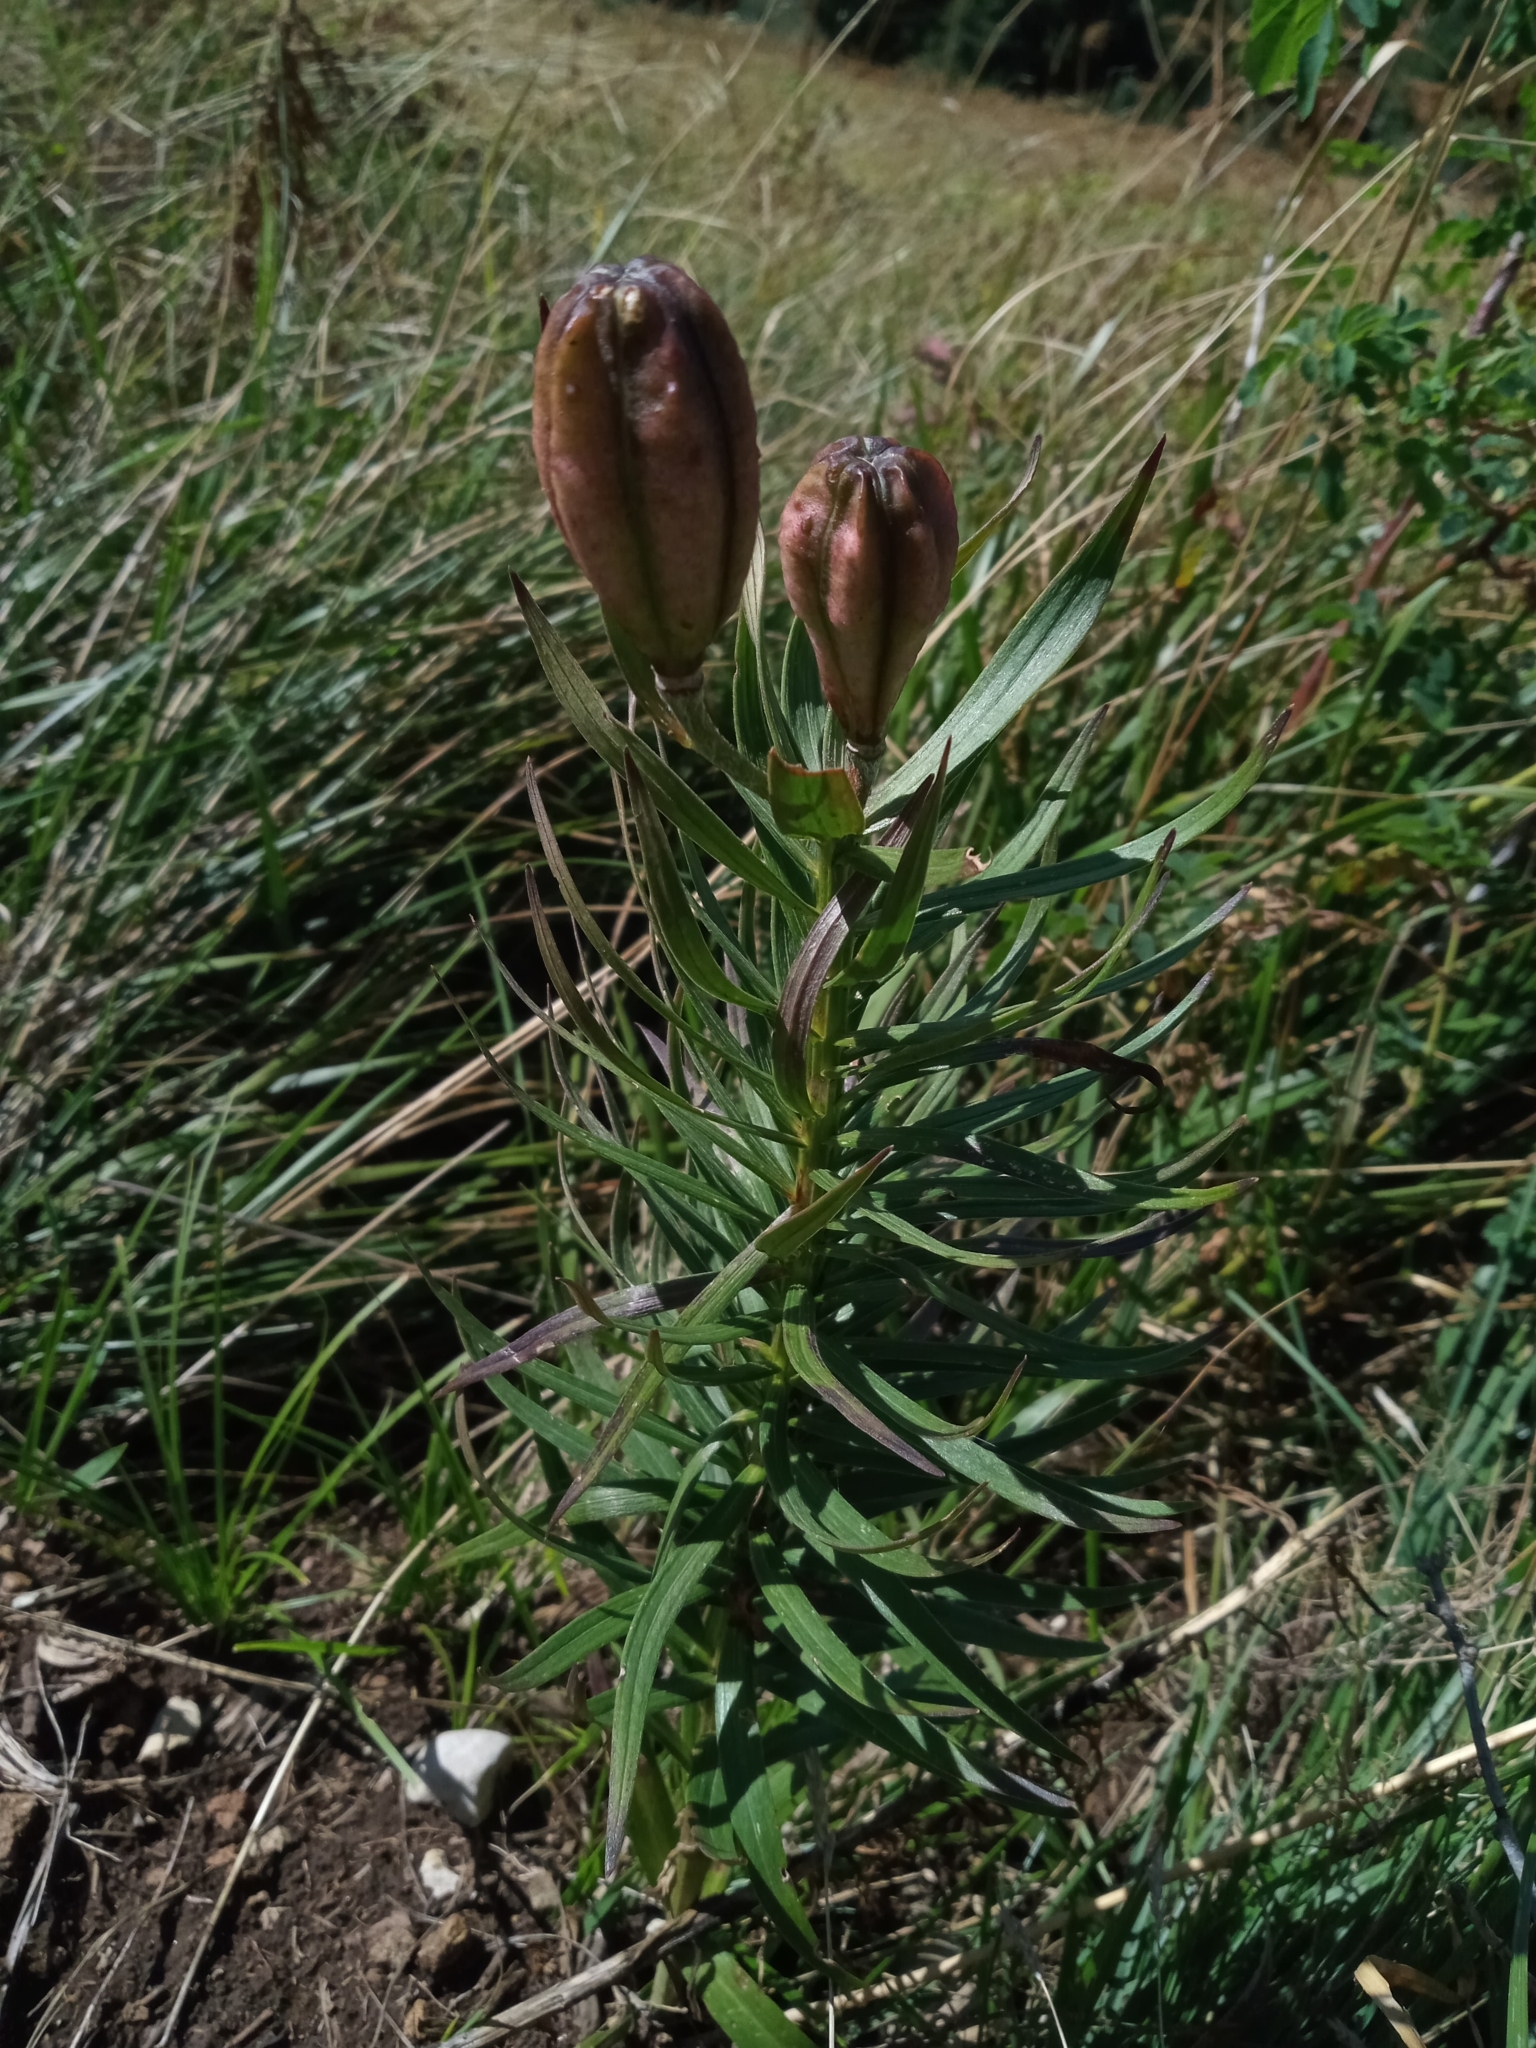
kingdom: Plantae
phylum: Tracheophyta
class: Liliopsida
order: Liliales
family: Liliaceae
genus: Lilium
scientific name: Lilium bulbiferum
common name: Orange lily
